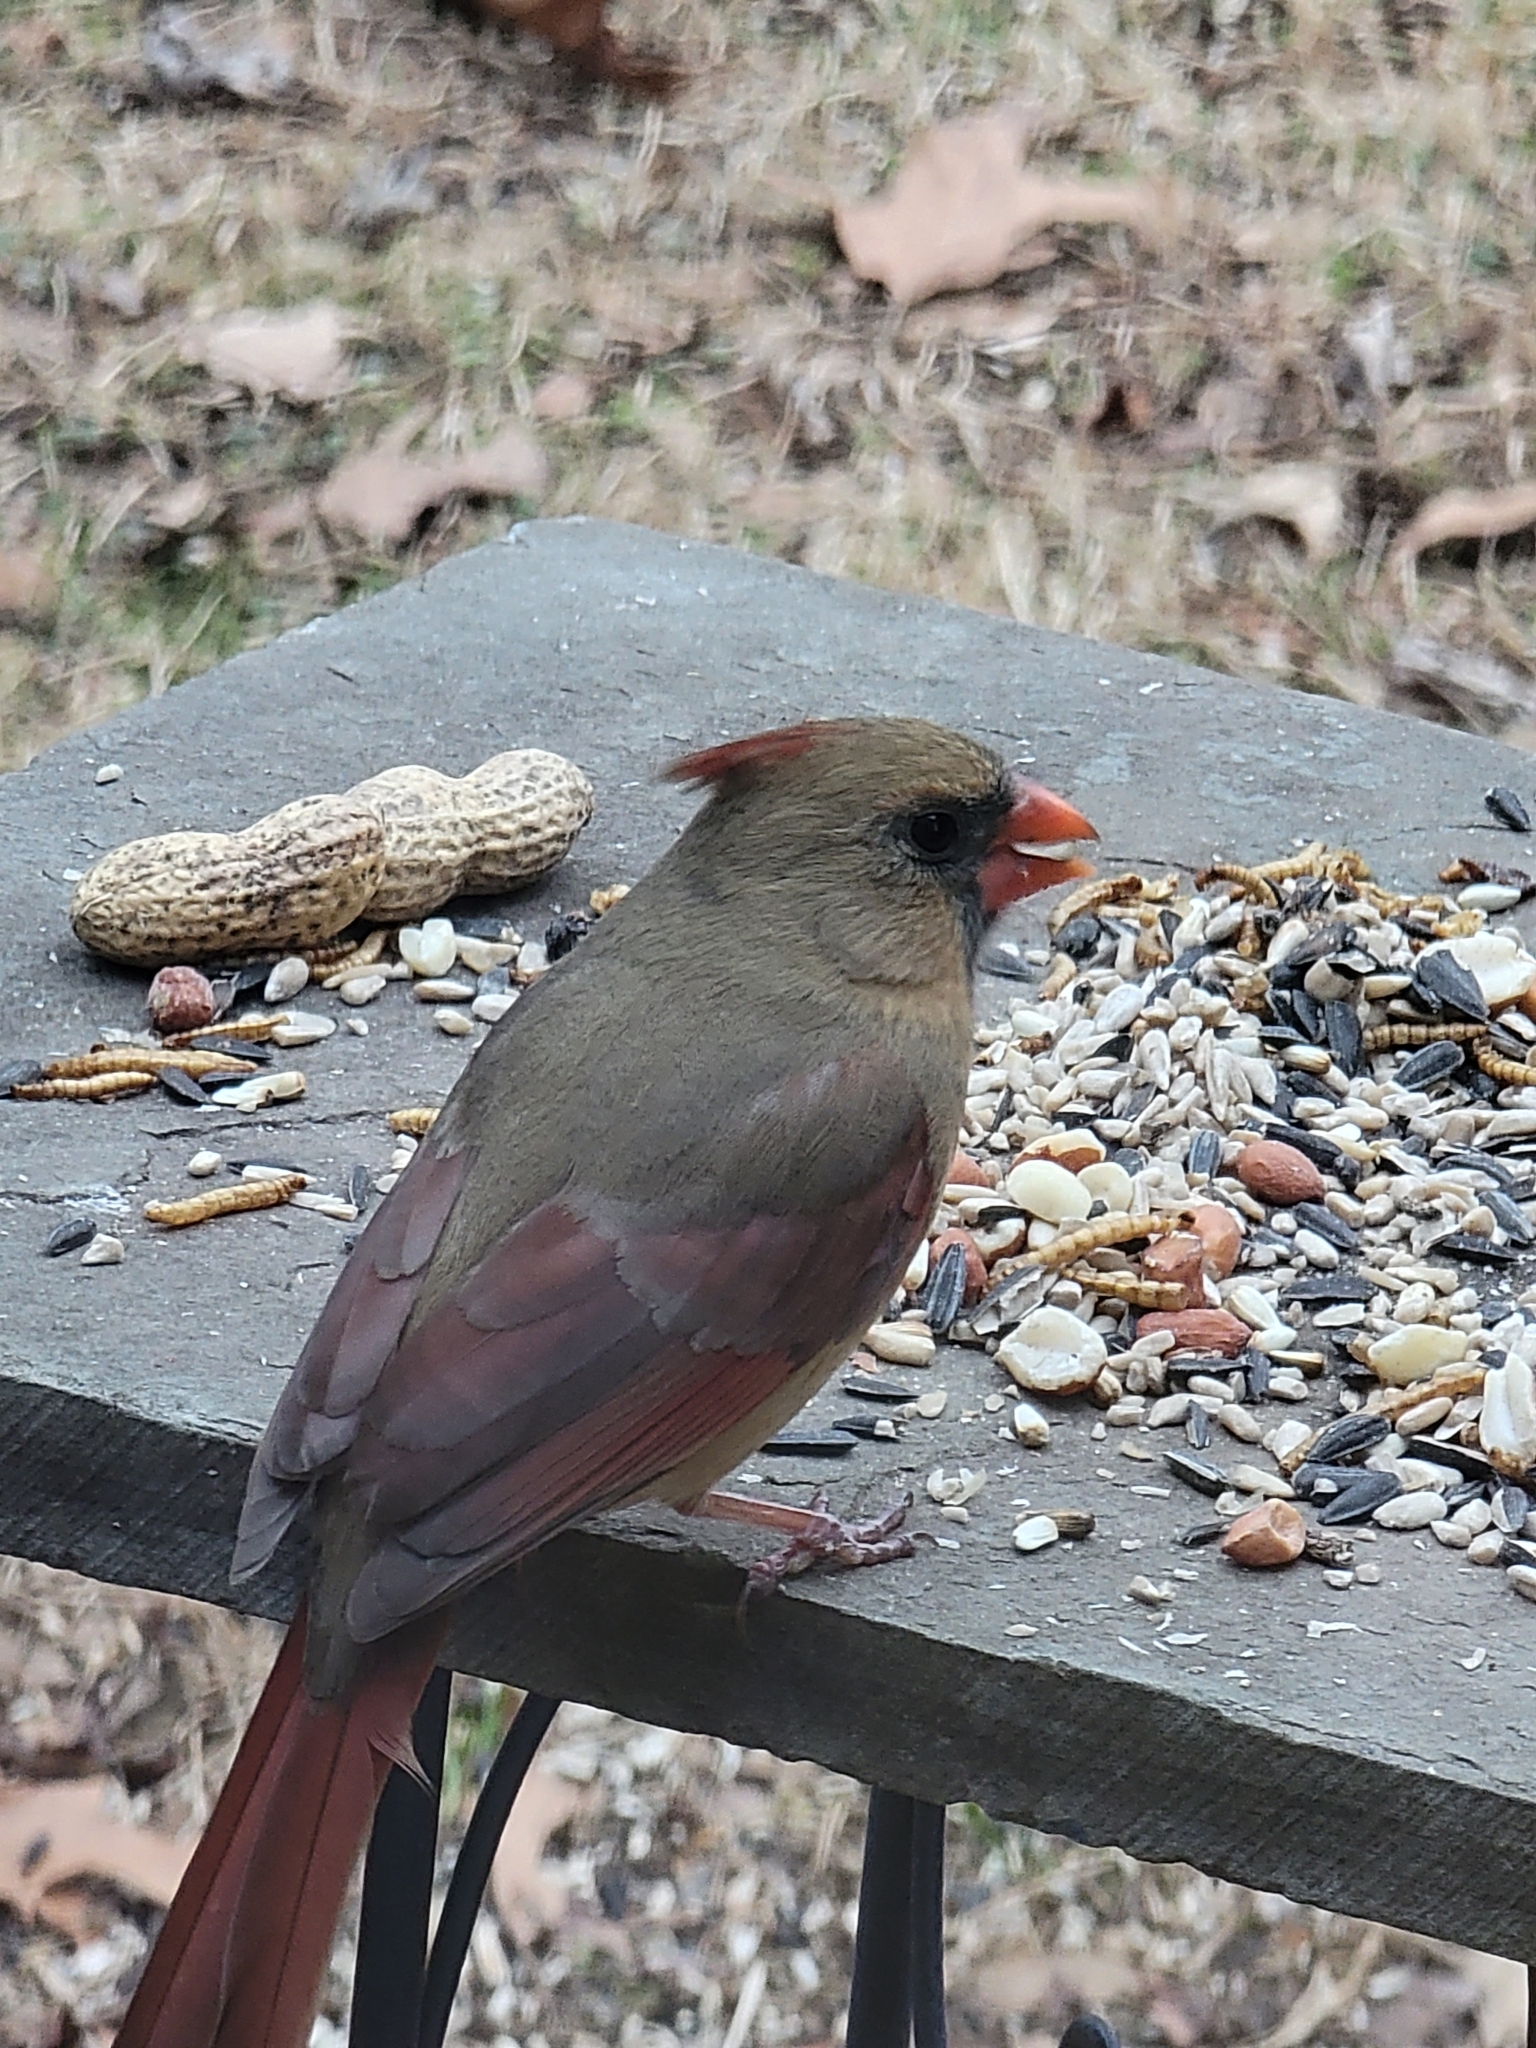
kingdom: Animalia
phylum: Chordata
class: Aves
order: Passeriformes
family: Cardinalidae
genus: Cardinalis
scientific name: Cardinalis cardinalis
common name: Northern cardinal
